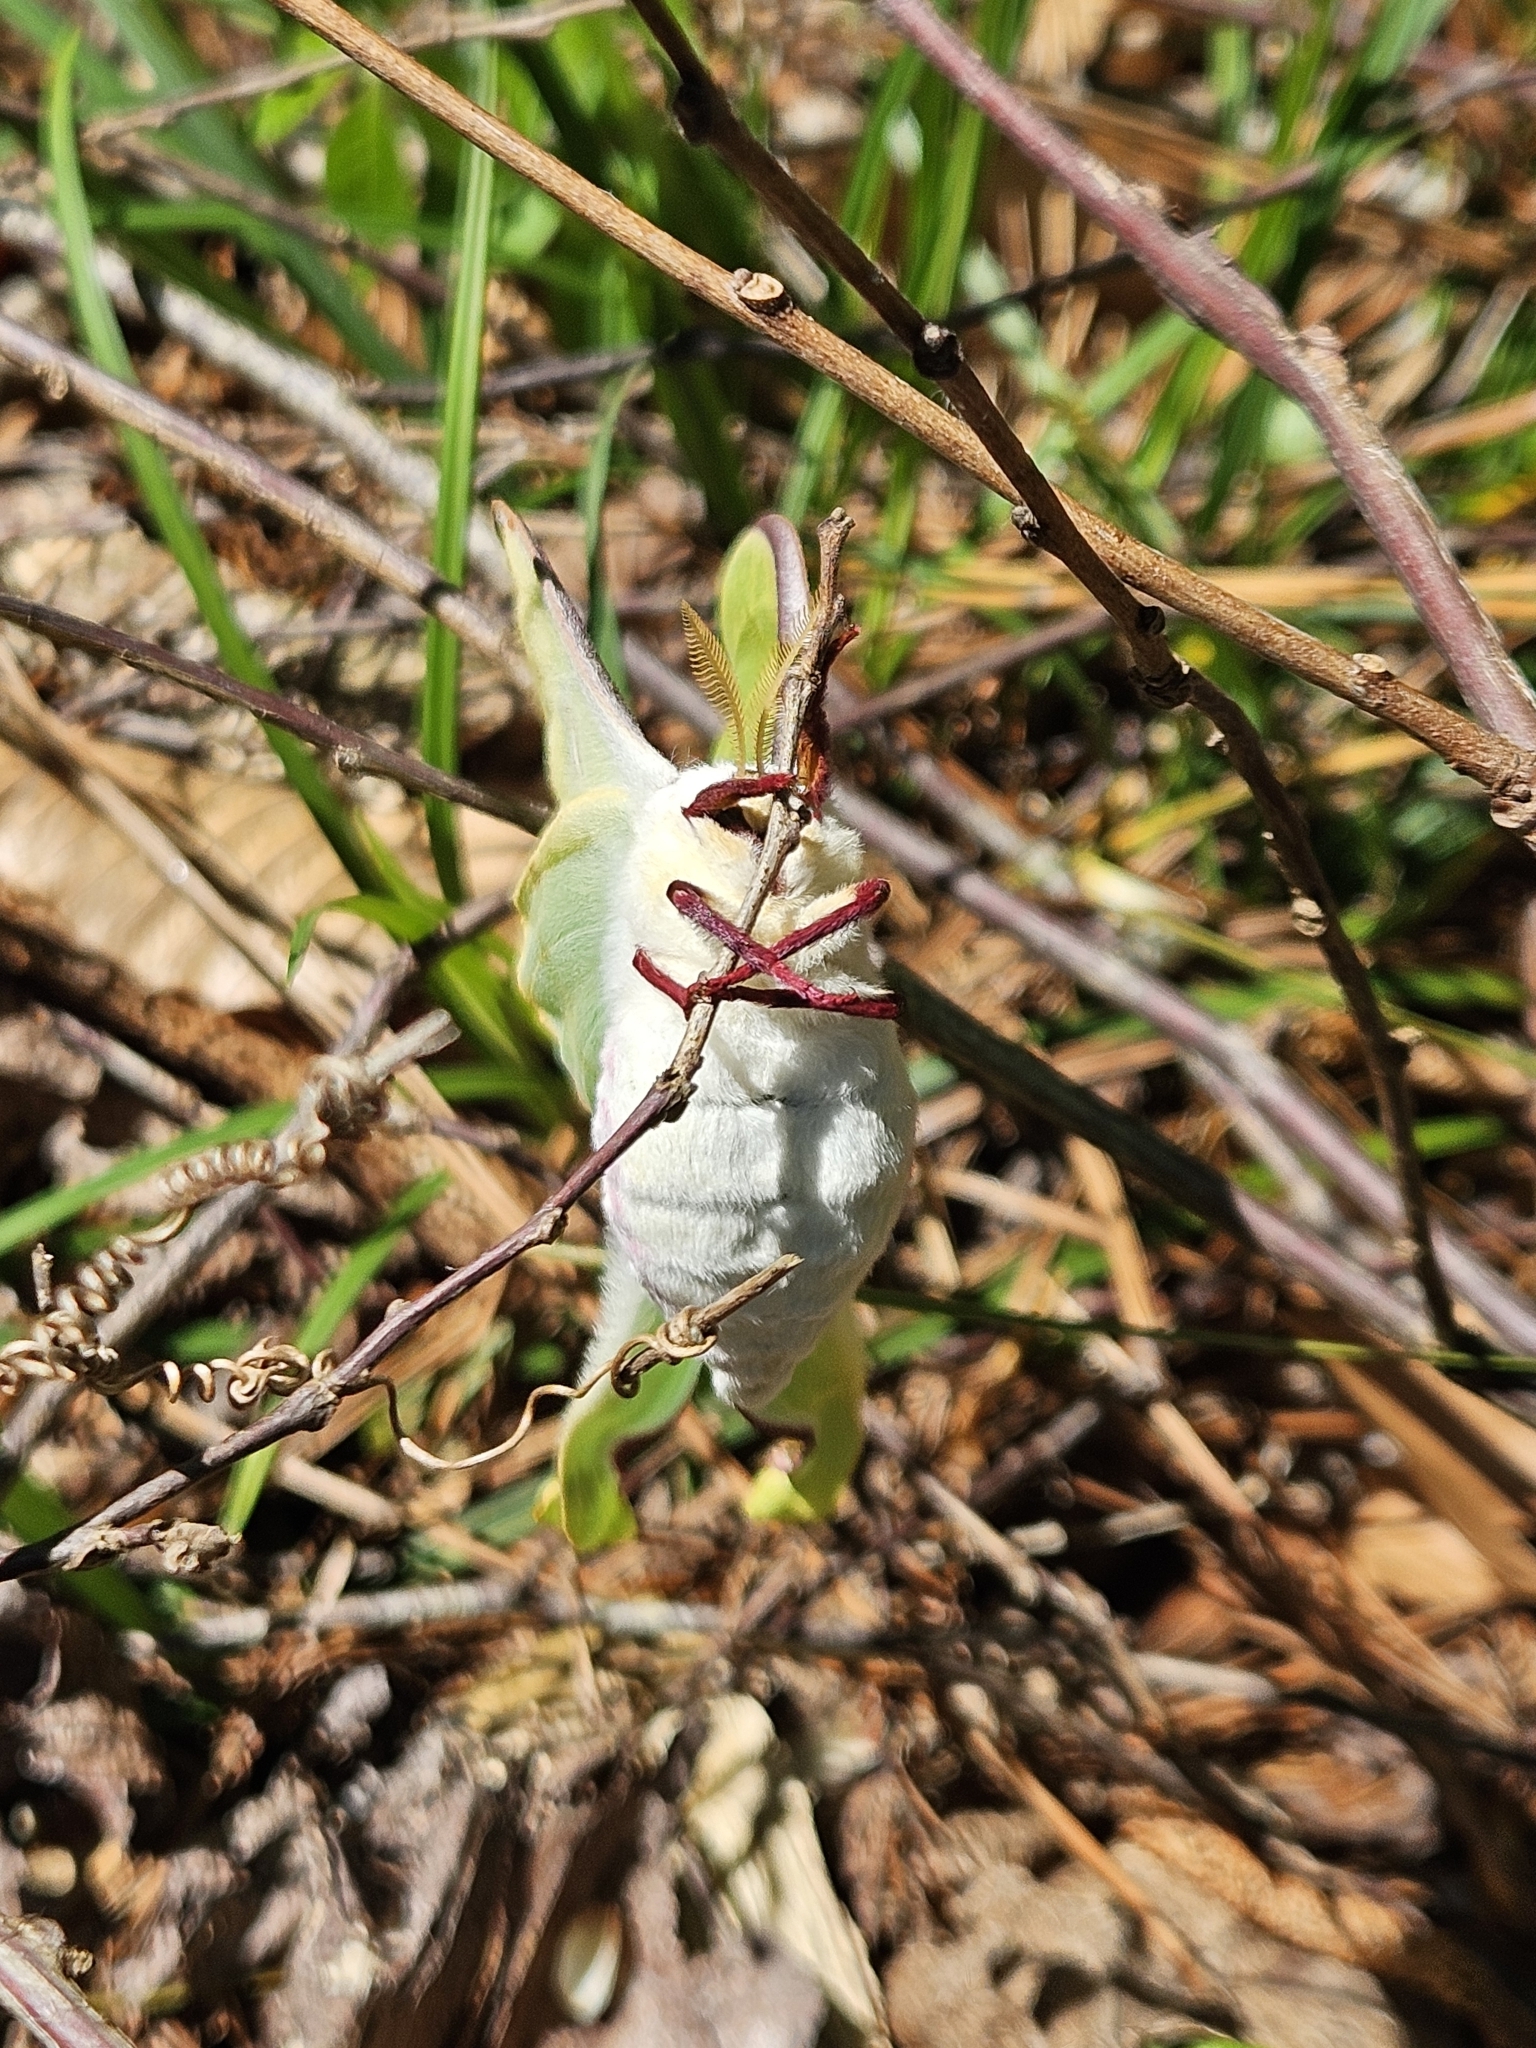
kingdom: Animalia
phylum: Arthropoda
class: Insecta
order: Lepidoptera
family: Saturniidae
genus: Actias
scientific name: Actias luna
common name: Luna moth
